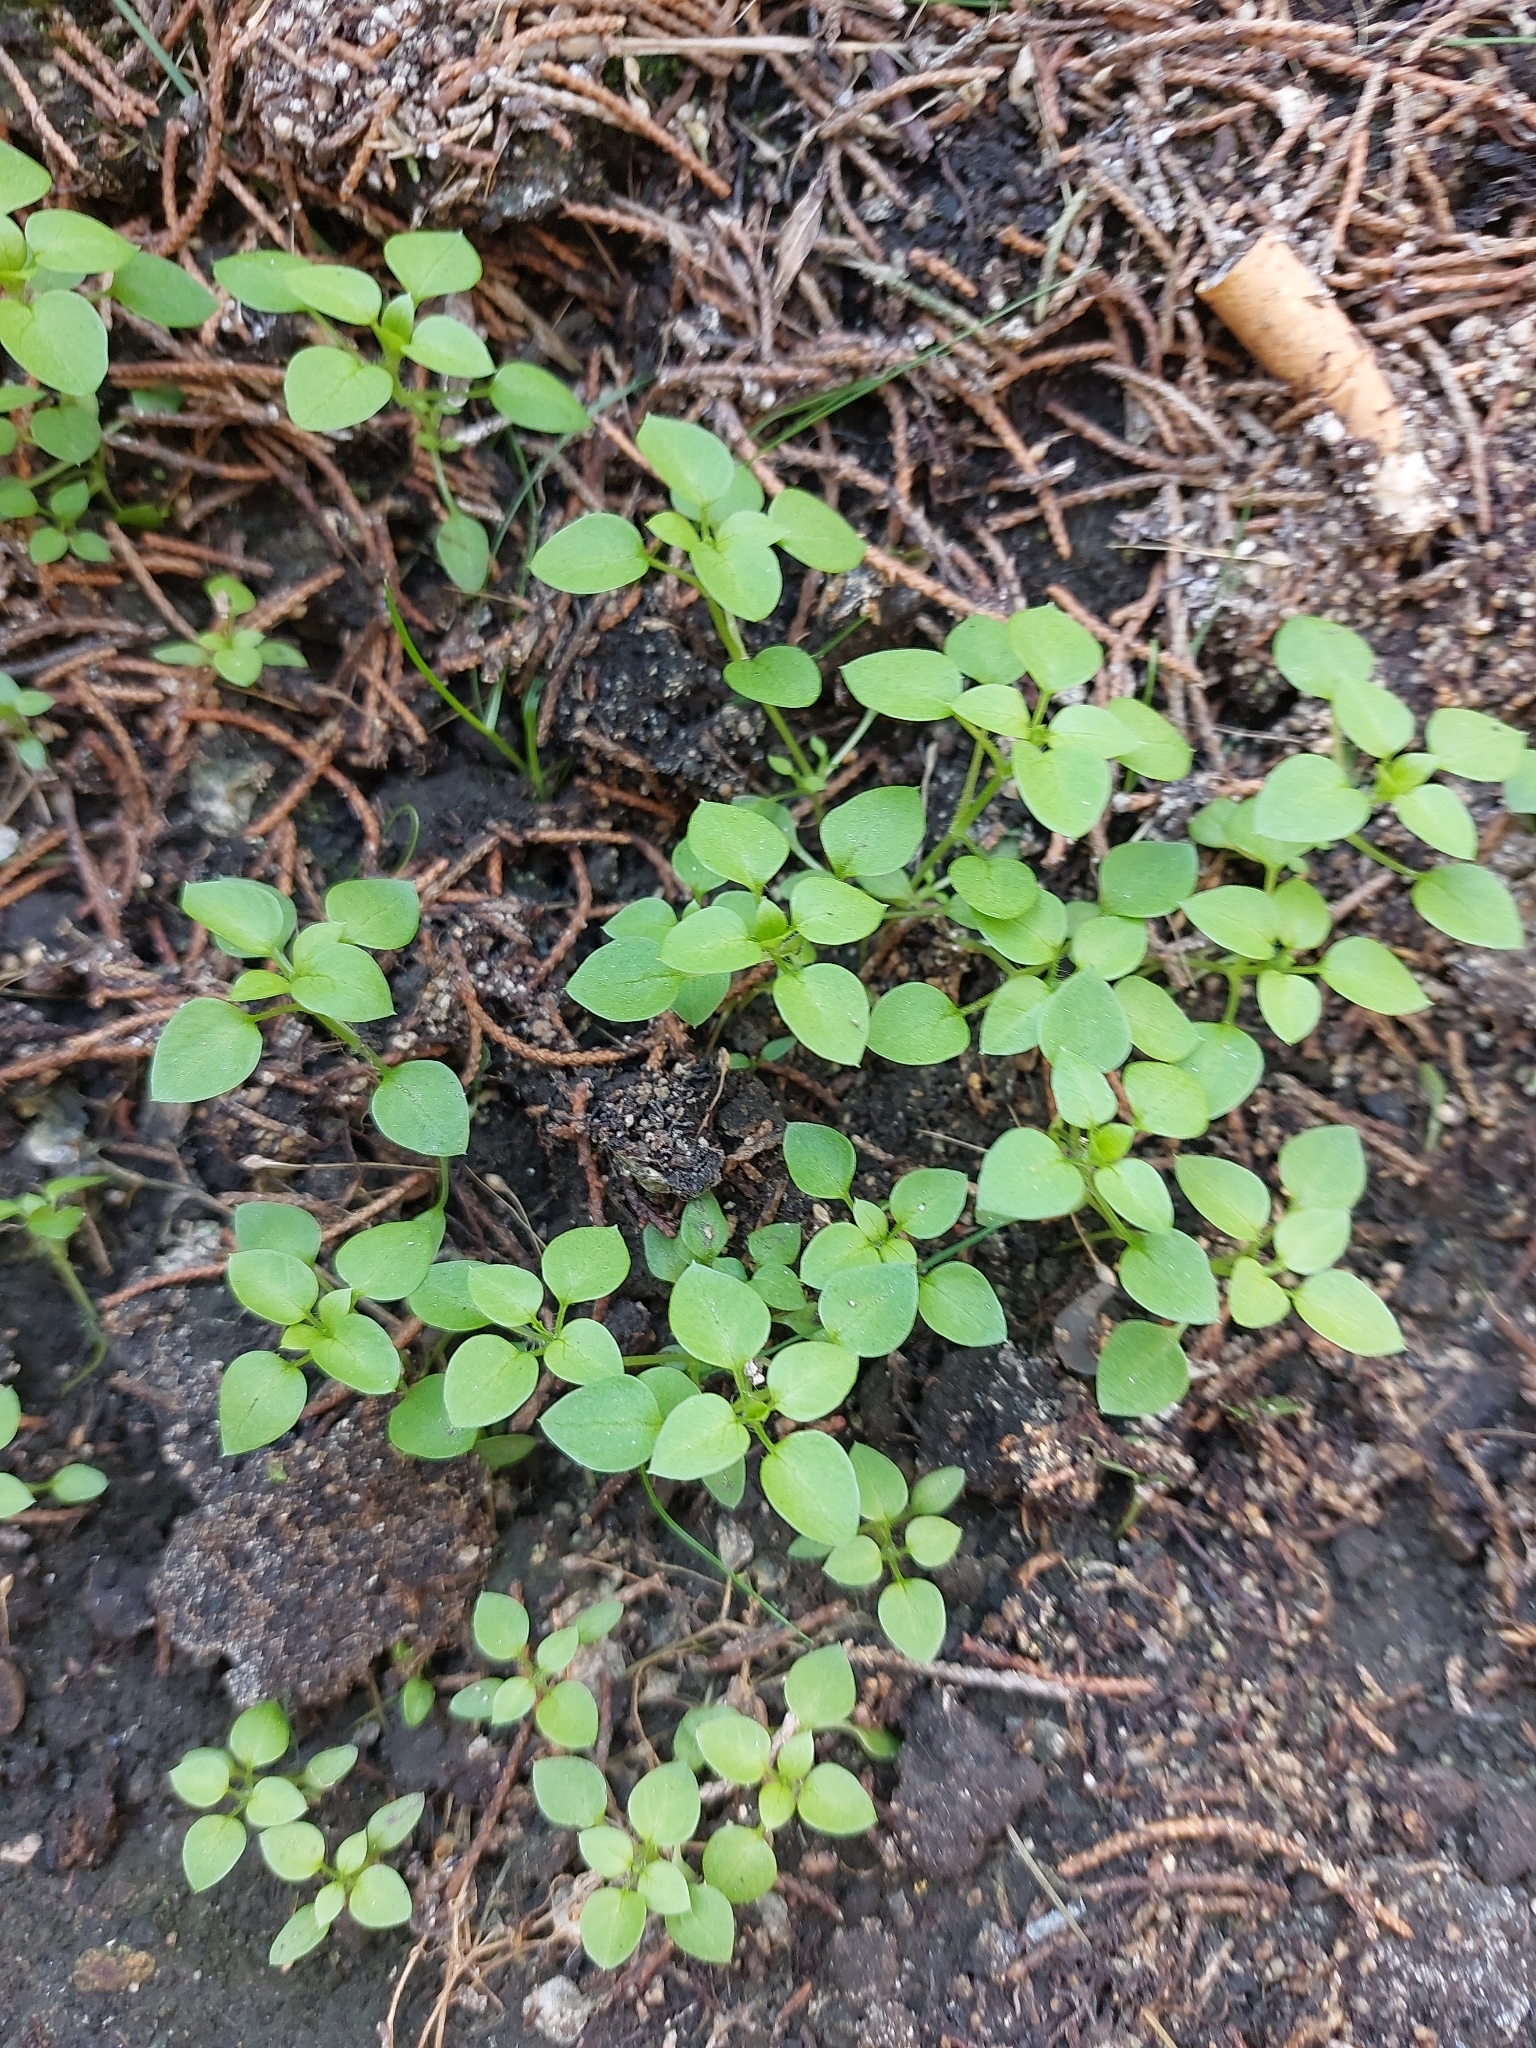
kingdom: Plantae
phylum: Tracheophyta
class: Magnoliopsida
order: Caryophyllales
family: Caryophyllaceae
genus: Stellaria
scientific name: Stellaria
